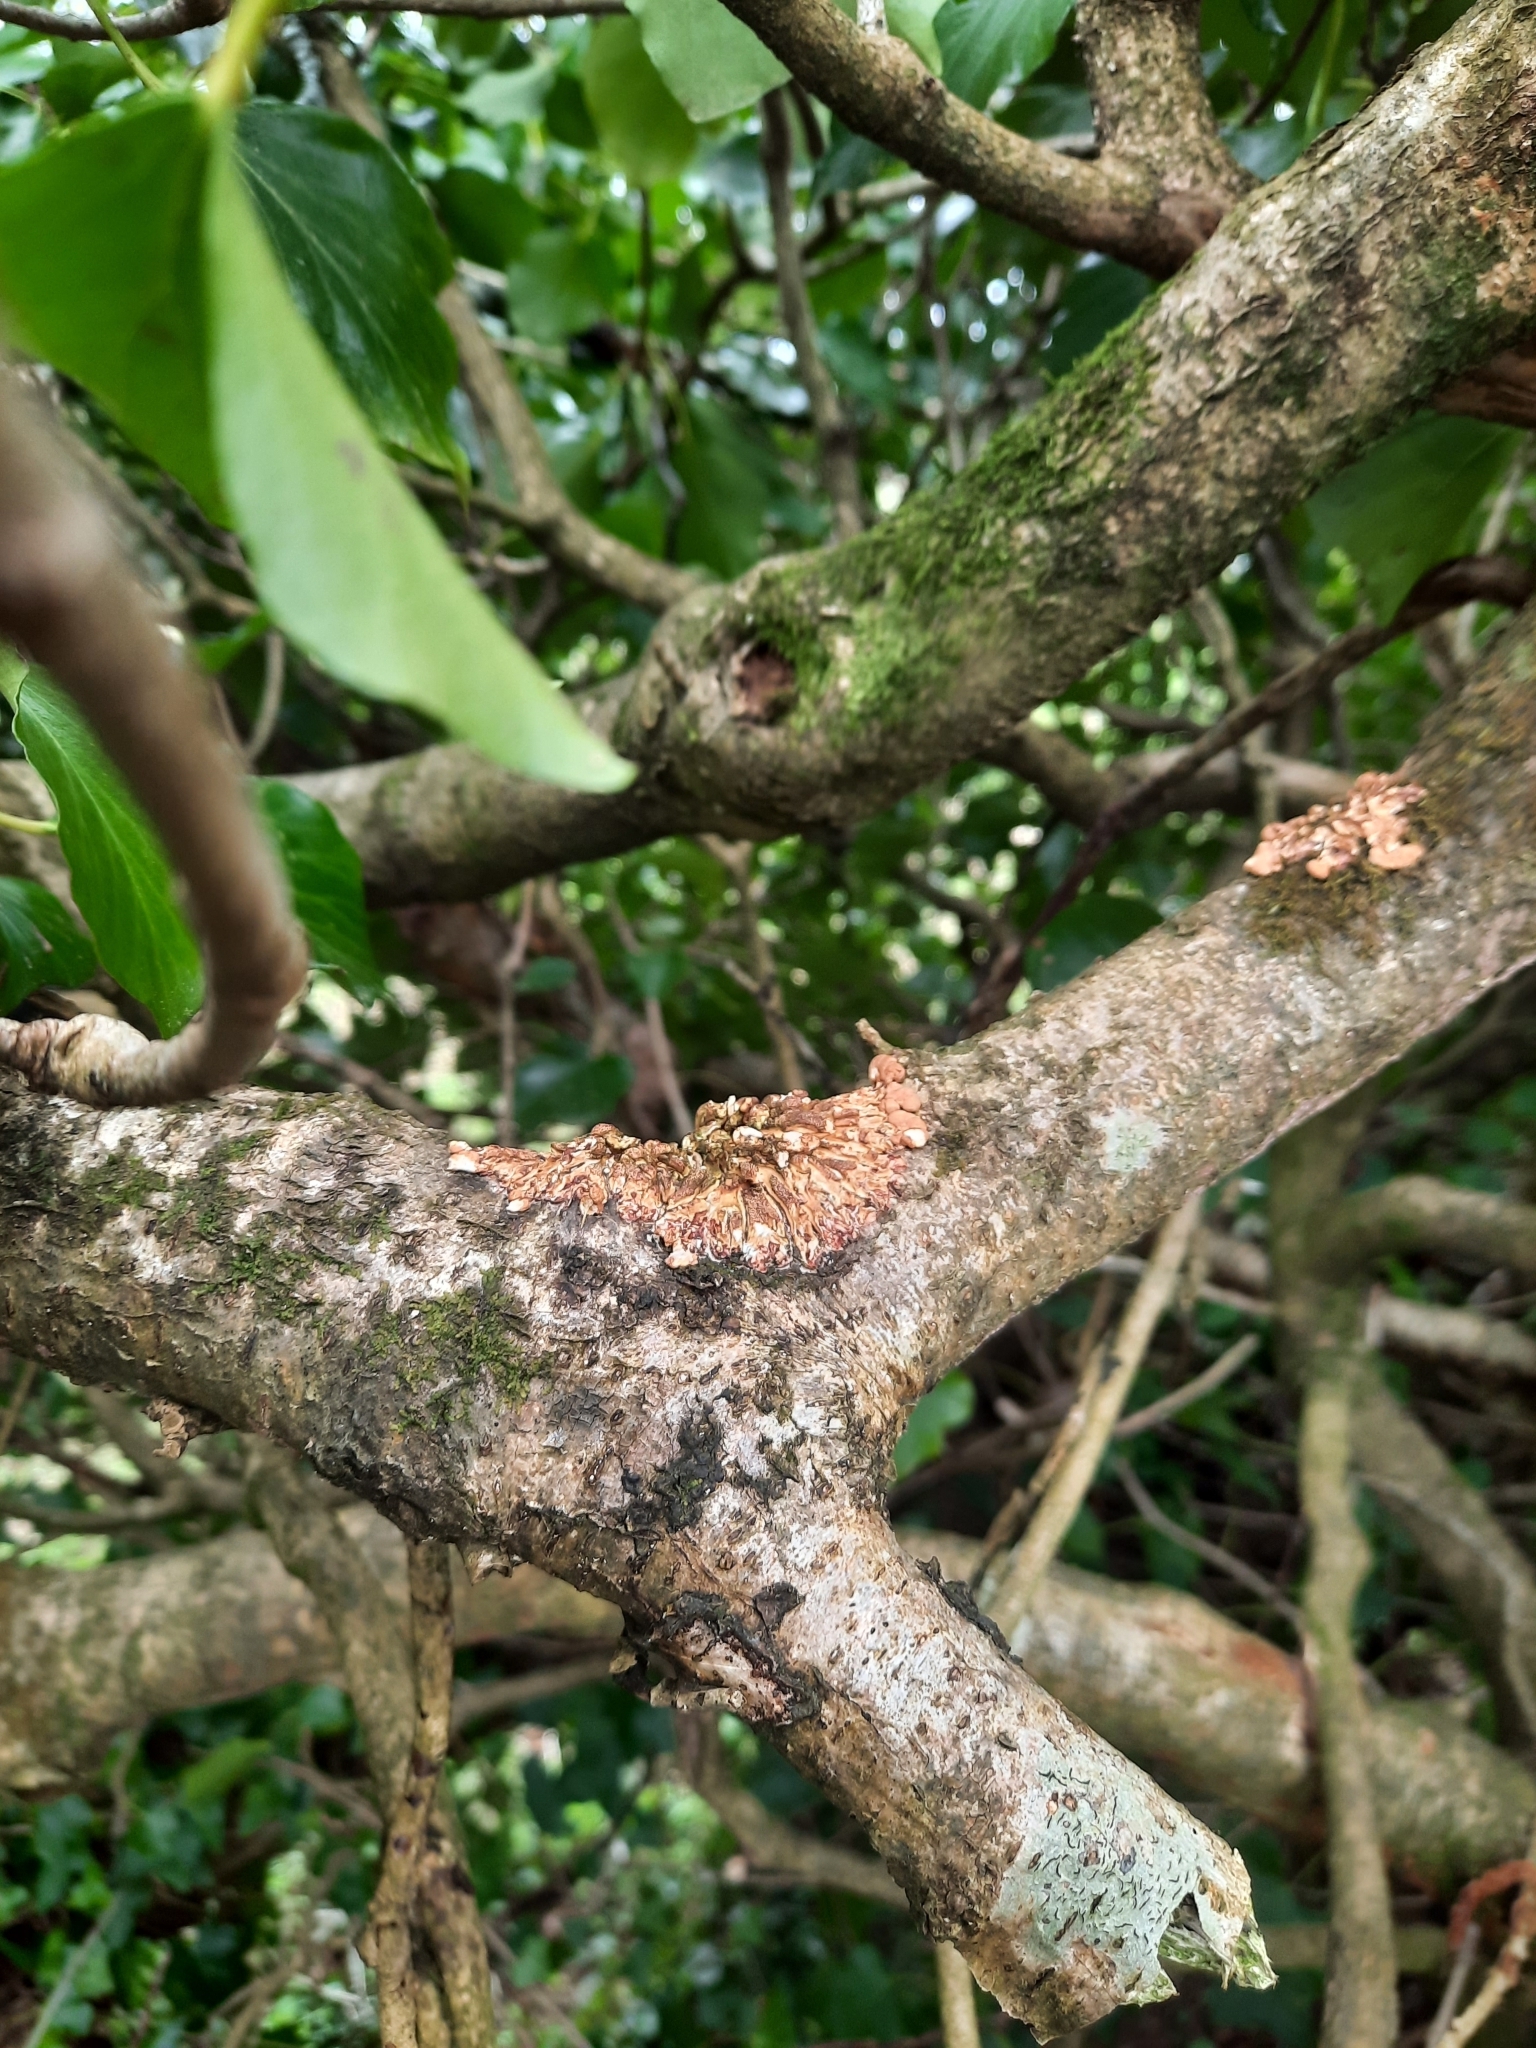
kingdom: Fungi
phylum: Ascomycota
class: Sordariomycetes
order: Hypocreales
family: Hypocreaceae
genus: Hypocreopsis
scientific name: Hypocreopsis rhododendri
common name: Hazel gloves
